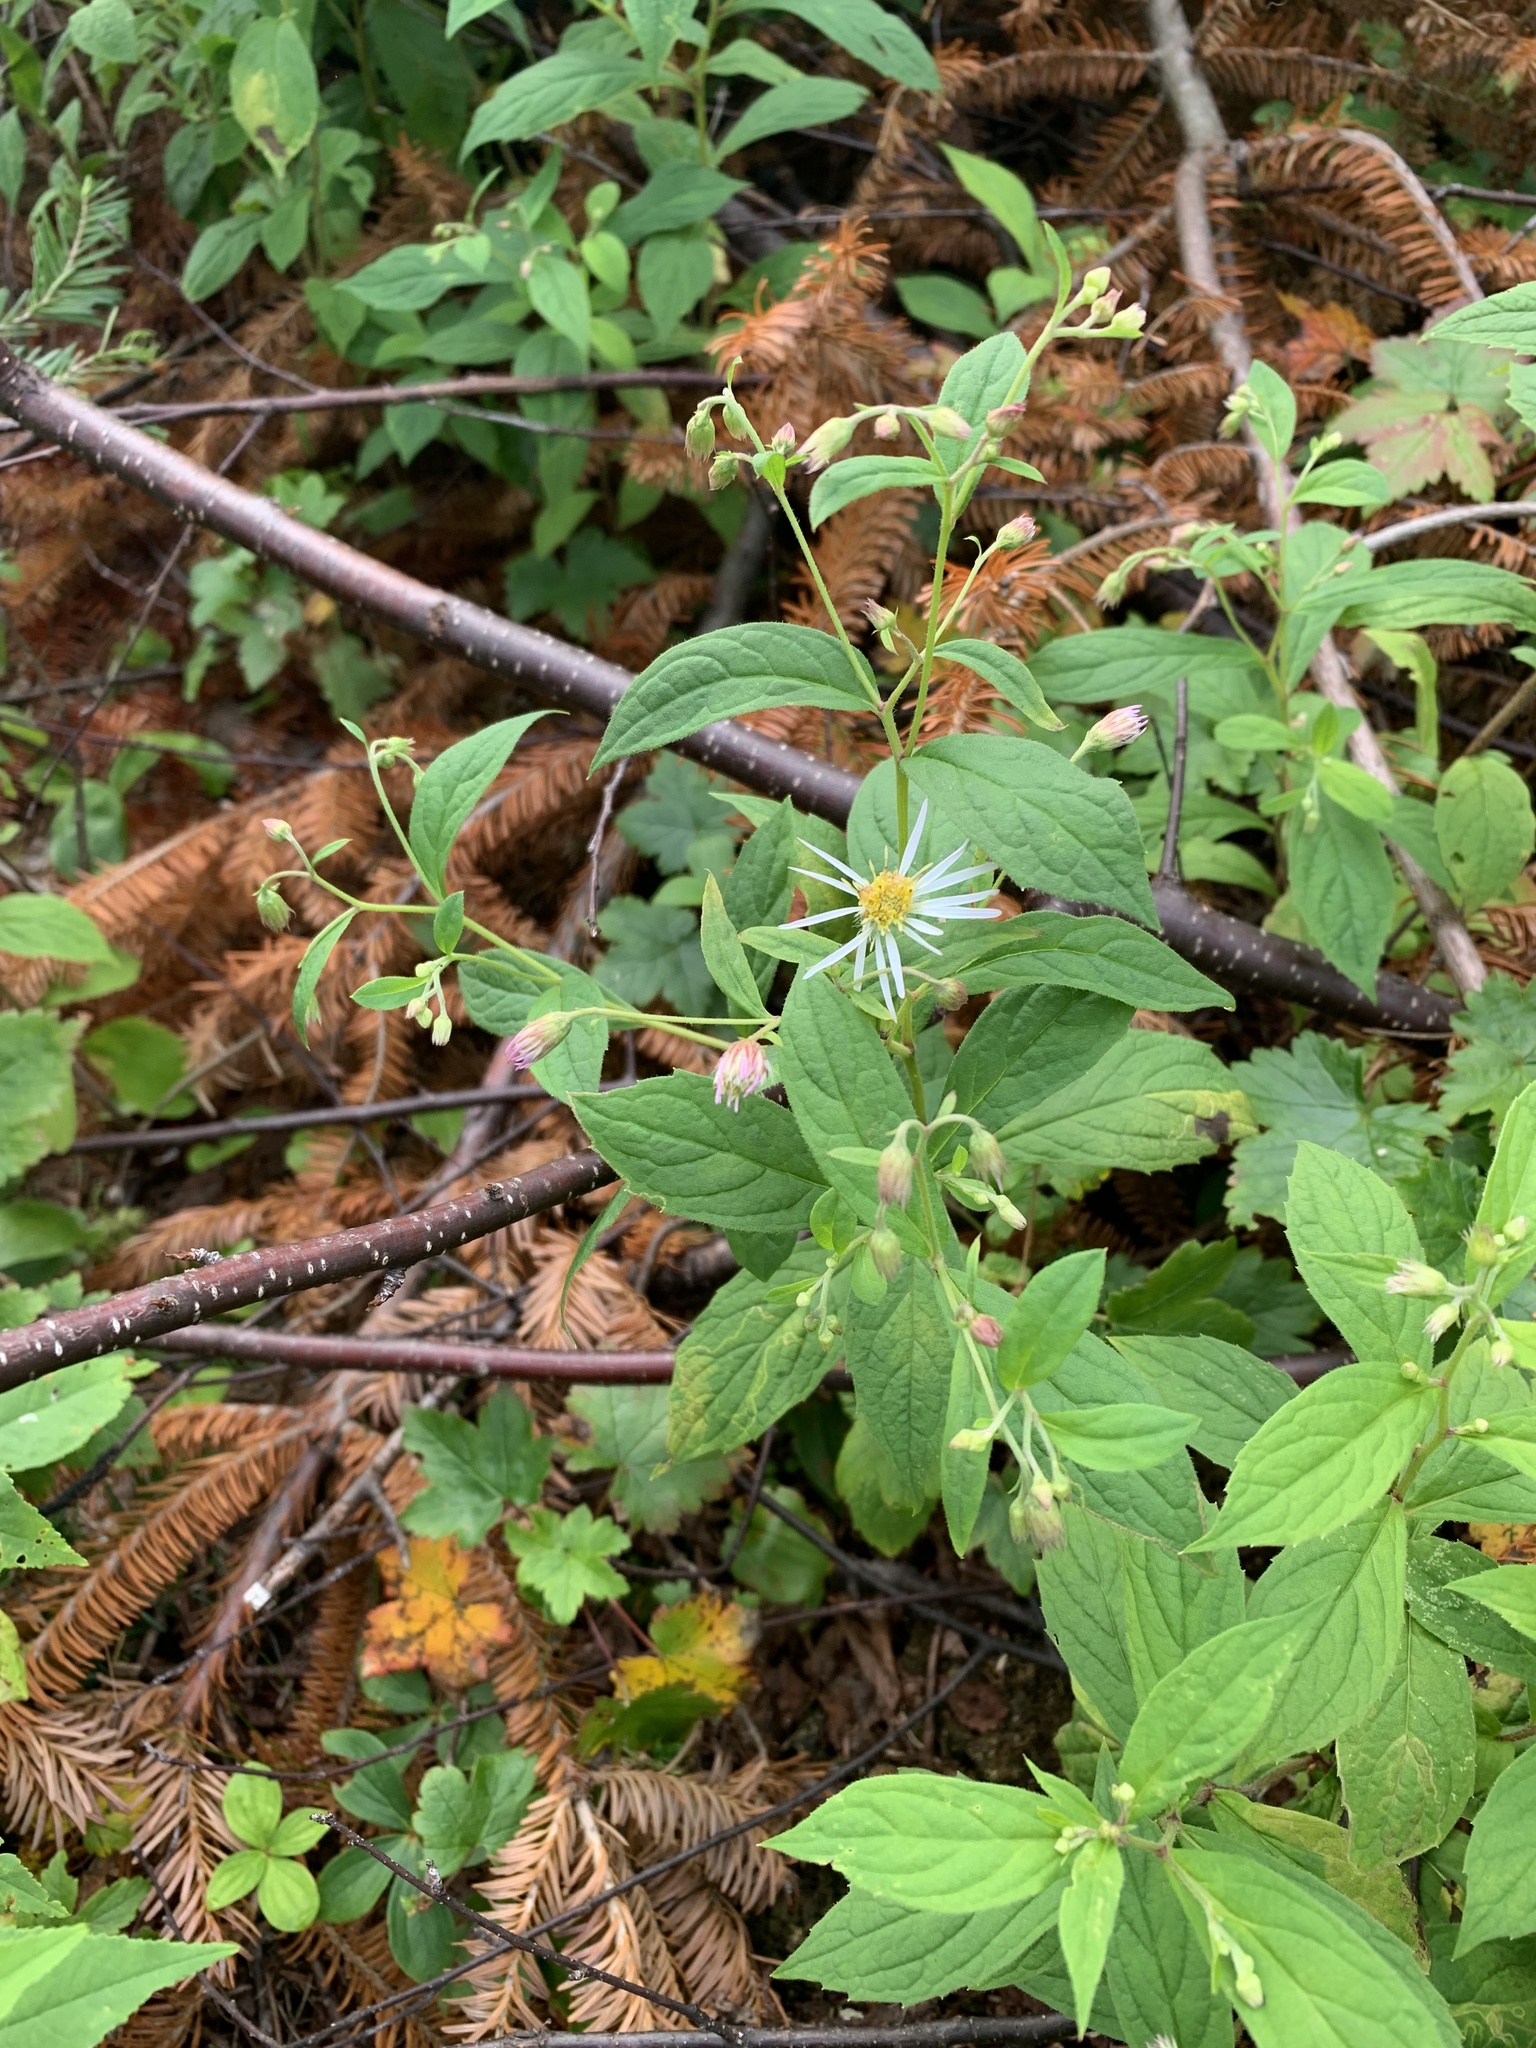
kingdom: Plantae
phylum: Tracheophyta
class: Magnoliopsida
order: Asterales
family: Asteraceae
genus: Oclemena
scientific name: Oclemena acuminata
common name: Mountain aster
